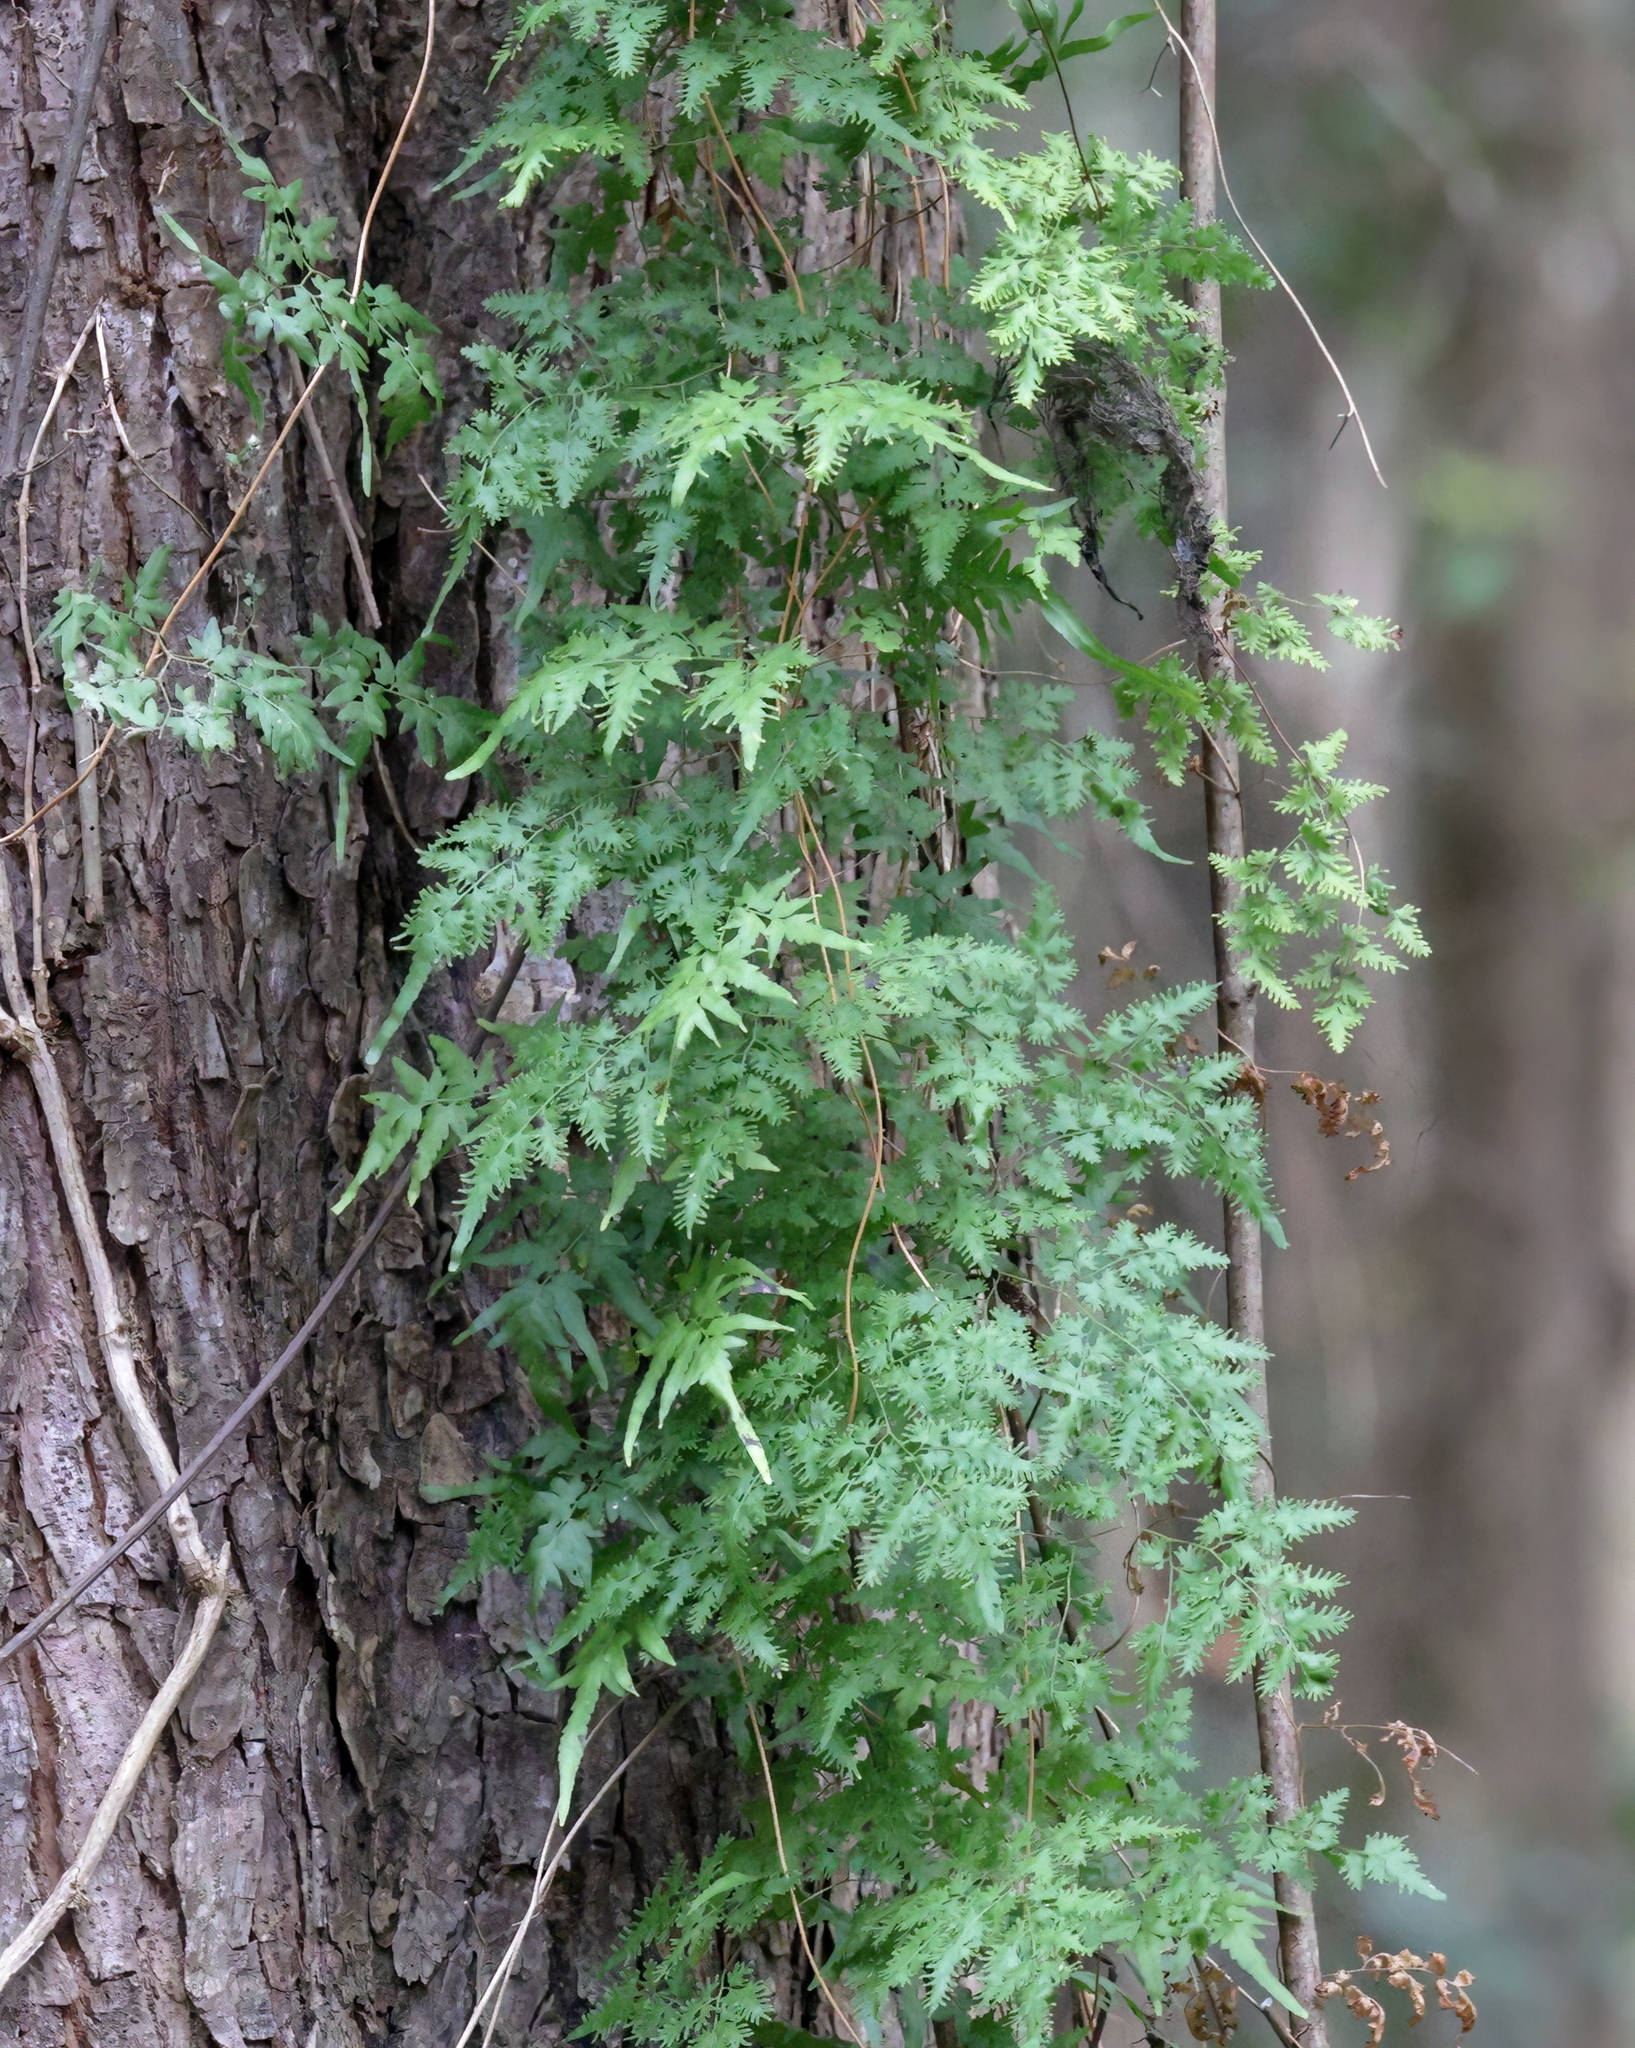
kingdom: Plantae
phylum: Tracheophyta
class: Polypodiopsida
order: Schizaeales
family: Lygodiaceae
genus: Lygodium
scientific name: Lygodium japonicum
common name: Japanese climbing fern
